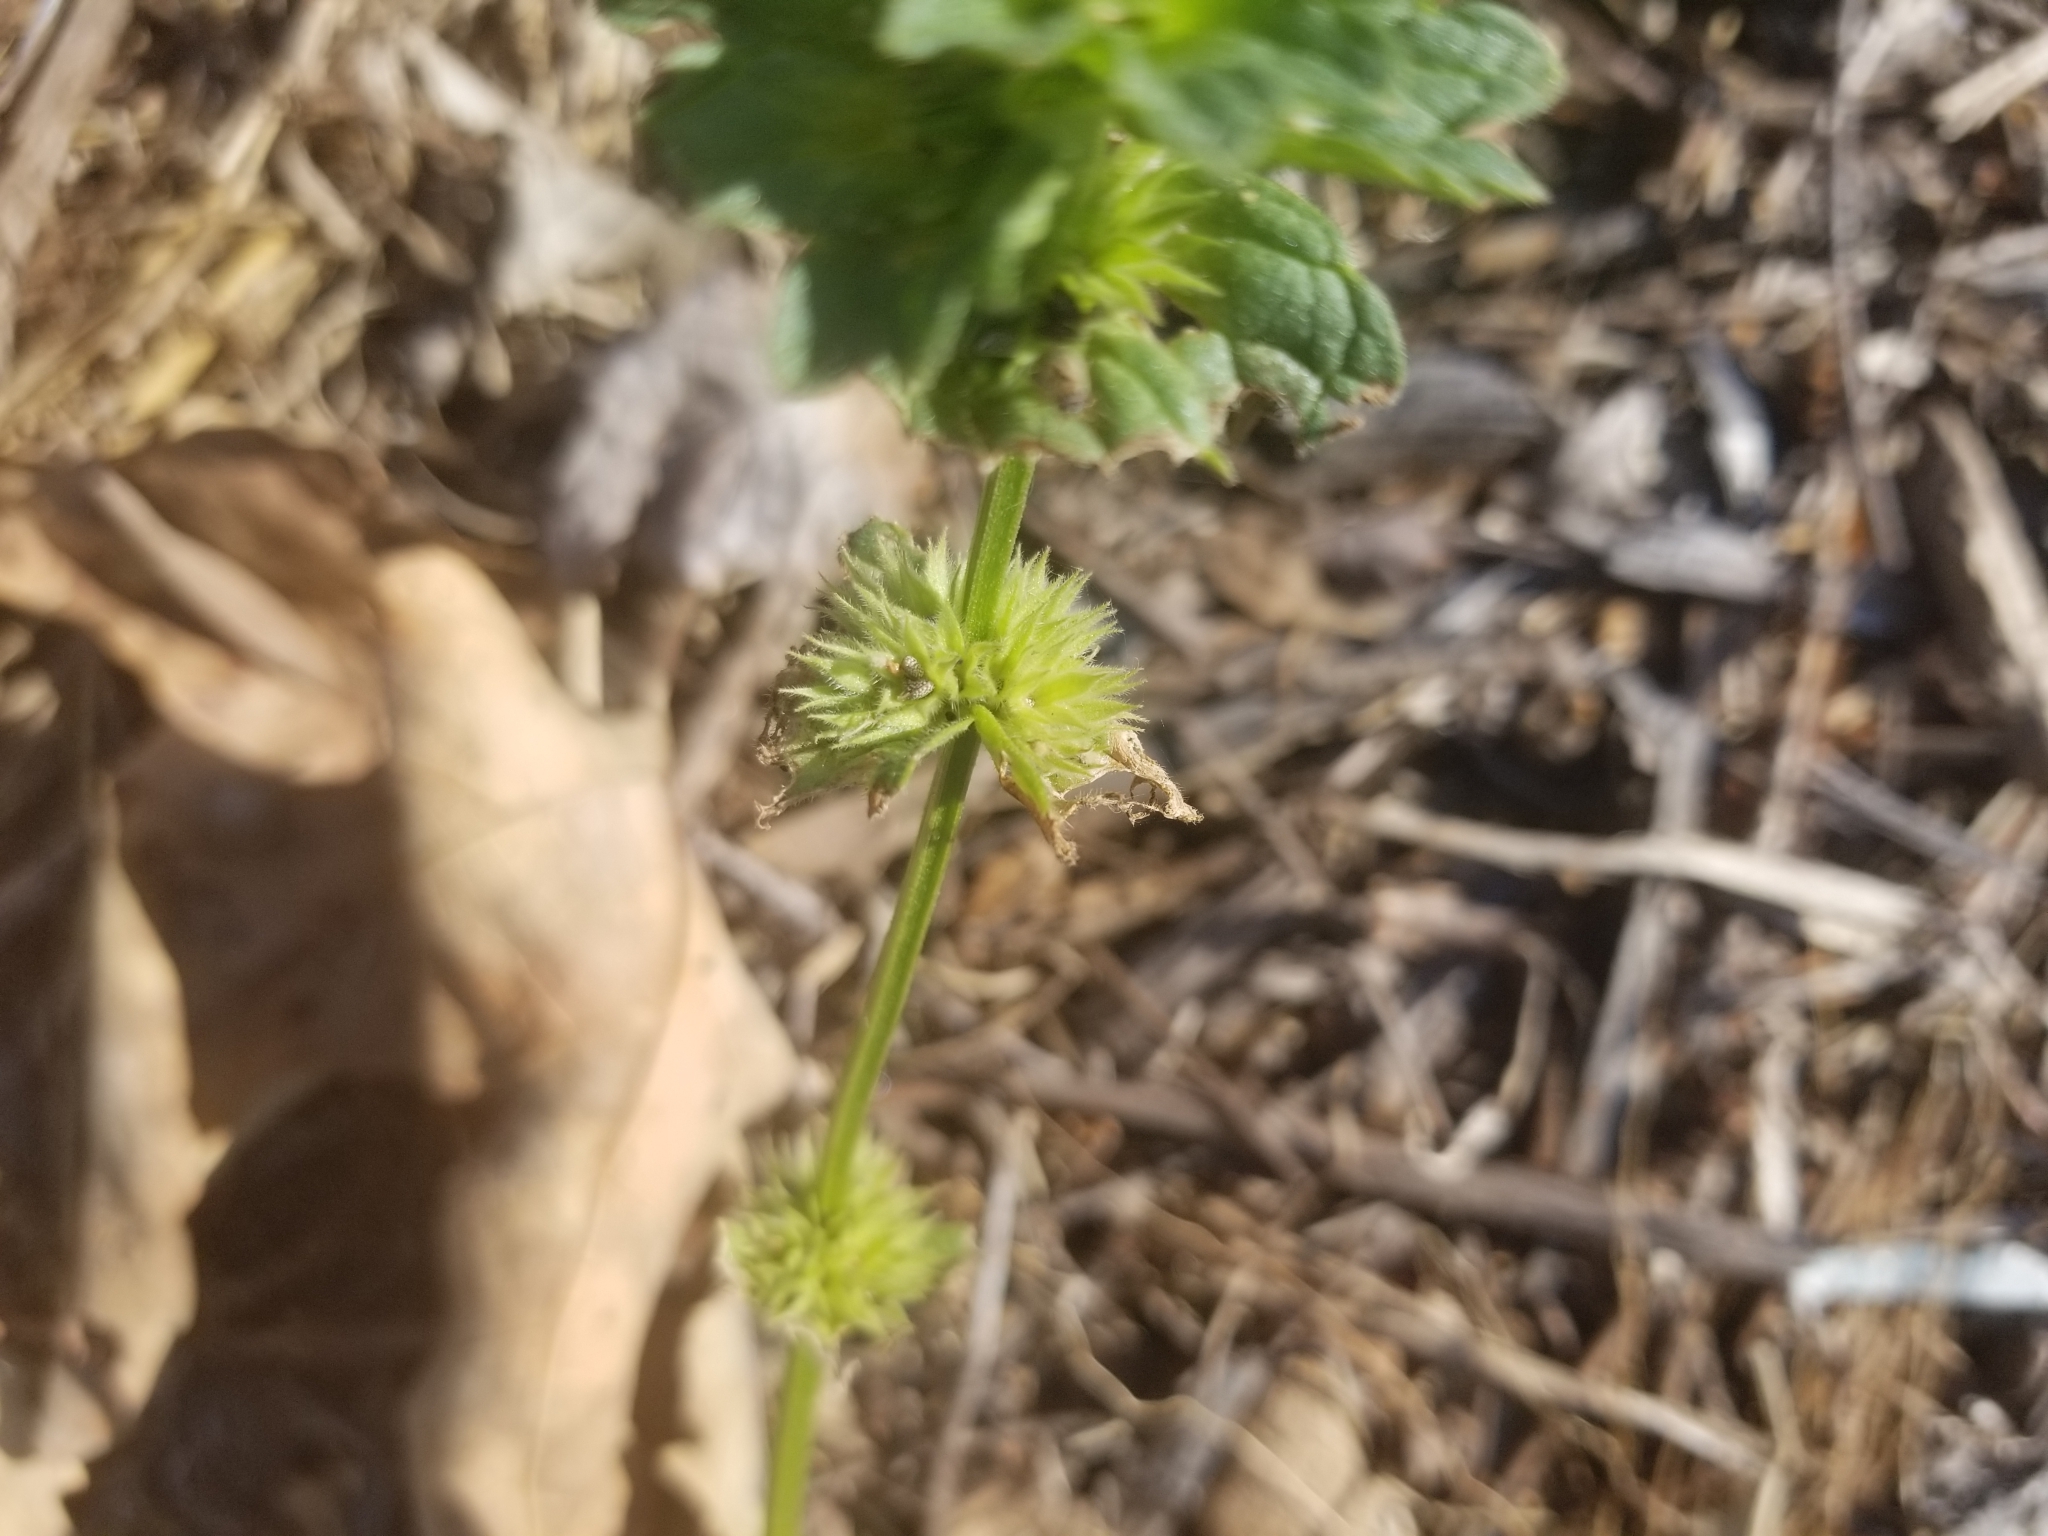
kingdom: Plantae
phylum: Tracheophyta
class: Magnoliopsida
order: Lamiales
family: Lamiaceae
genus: Lamium
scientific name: Lamium amplexicaule
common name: Henbit dead-nettle
